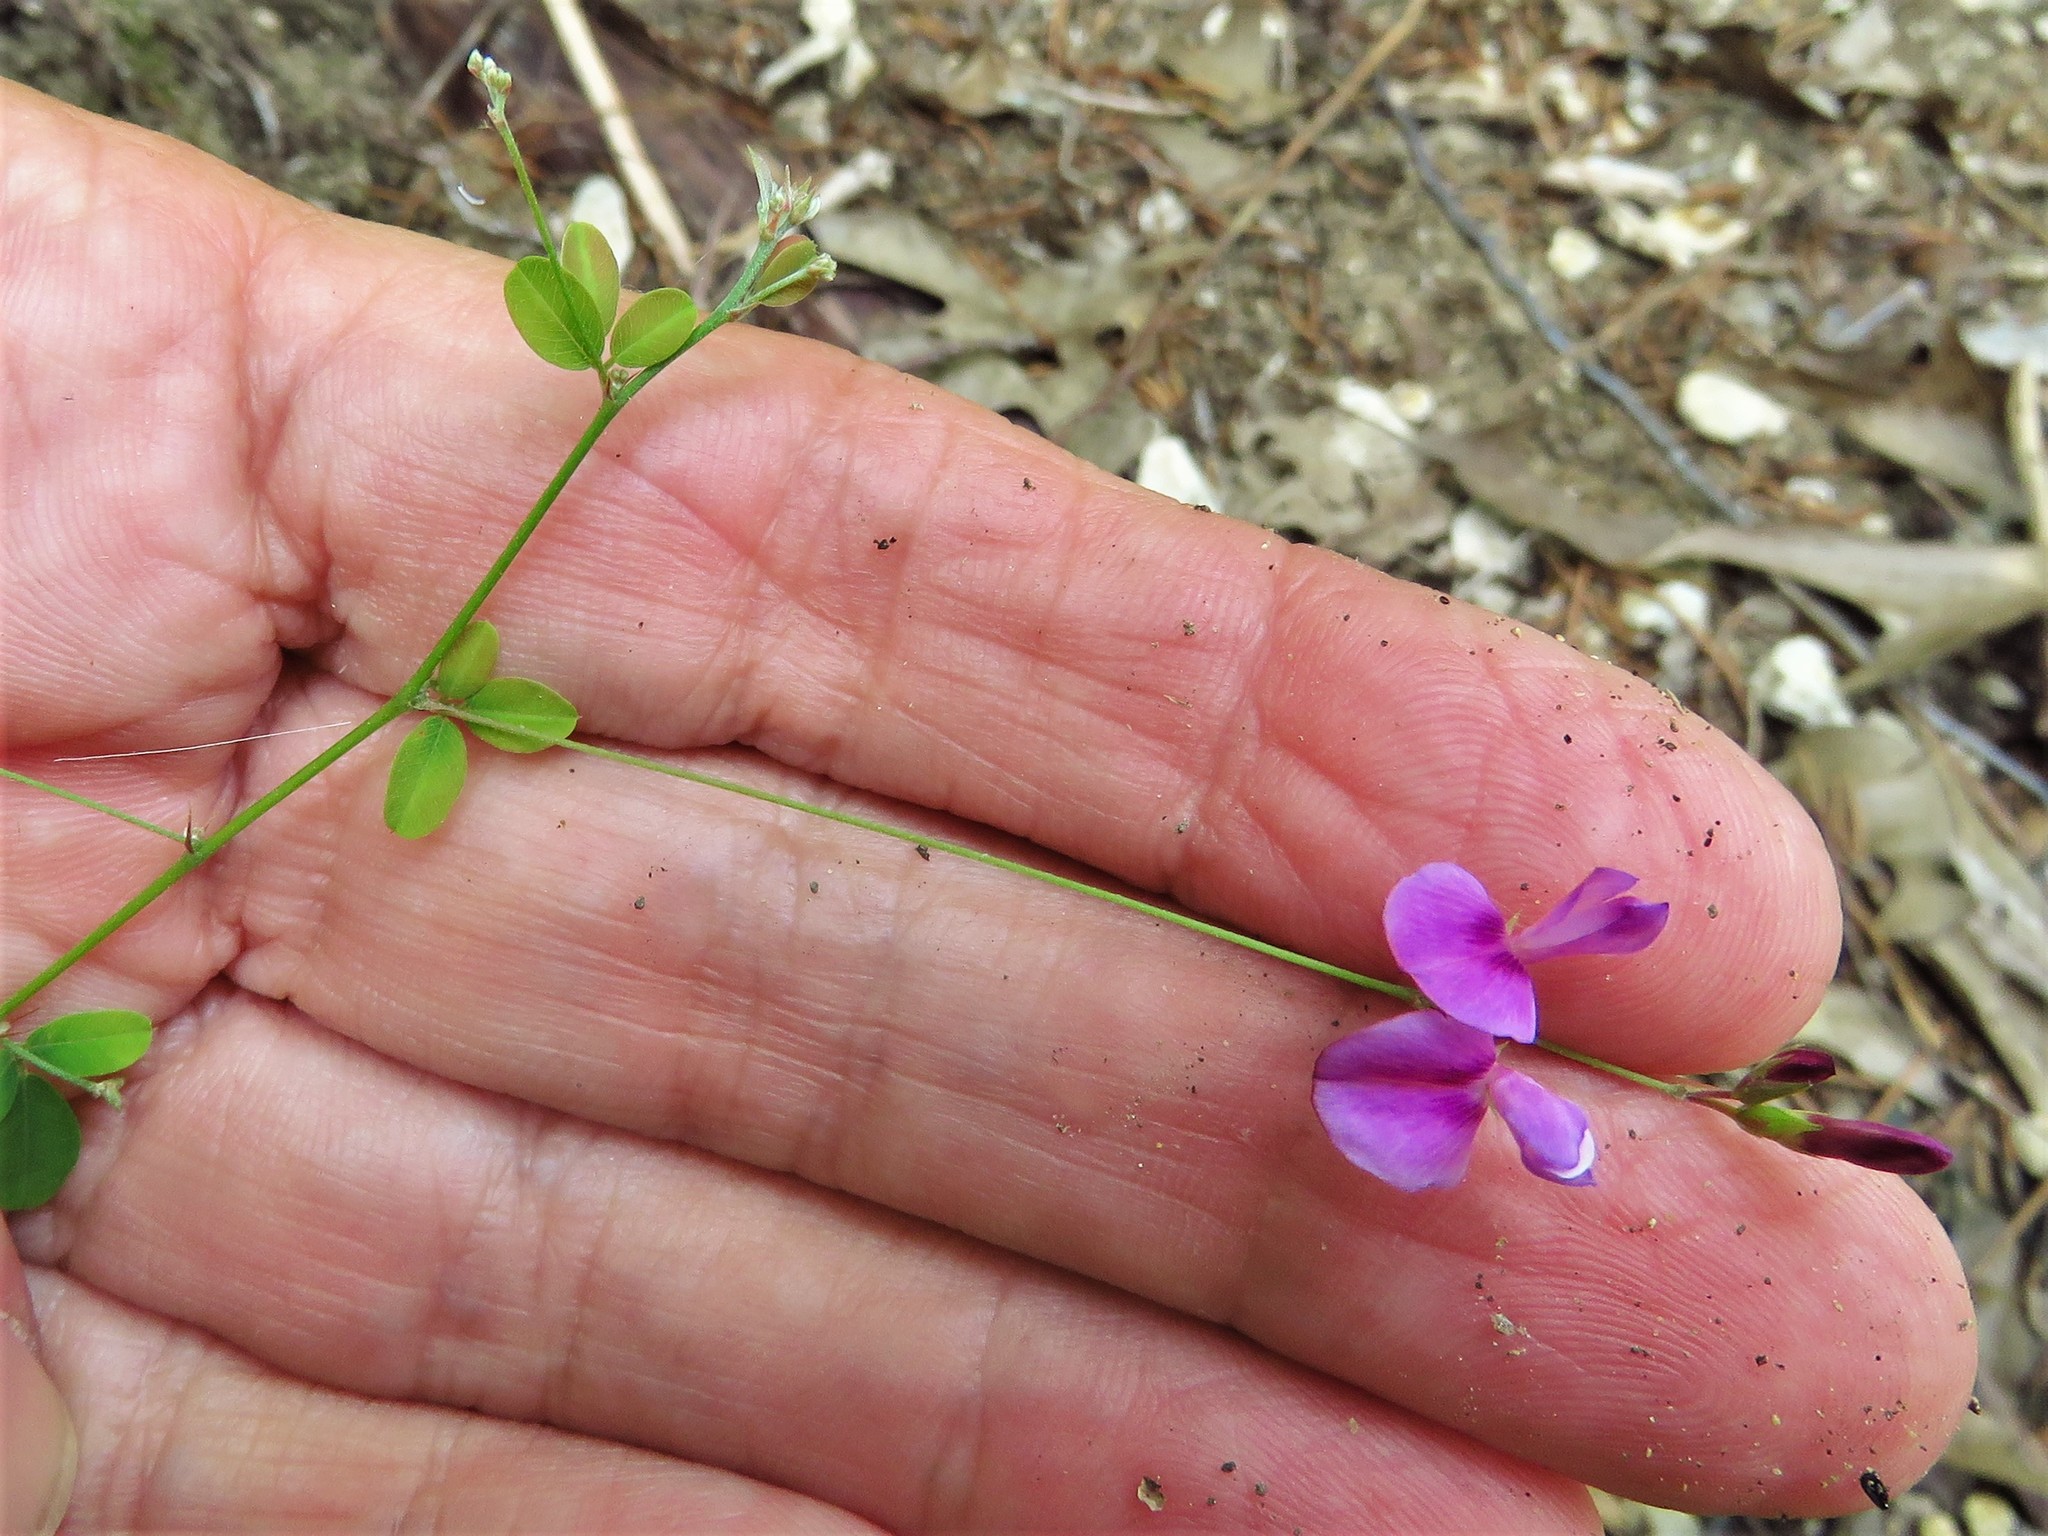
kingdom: Plantae
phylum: Tracheophyta
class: Magnoliopsida
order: Fabales
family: Fabaceae
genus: Lespedeza
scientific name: Lespedeza procumbens
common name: Downy trailing bush-clover
